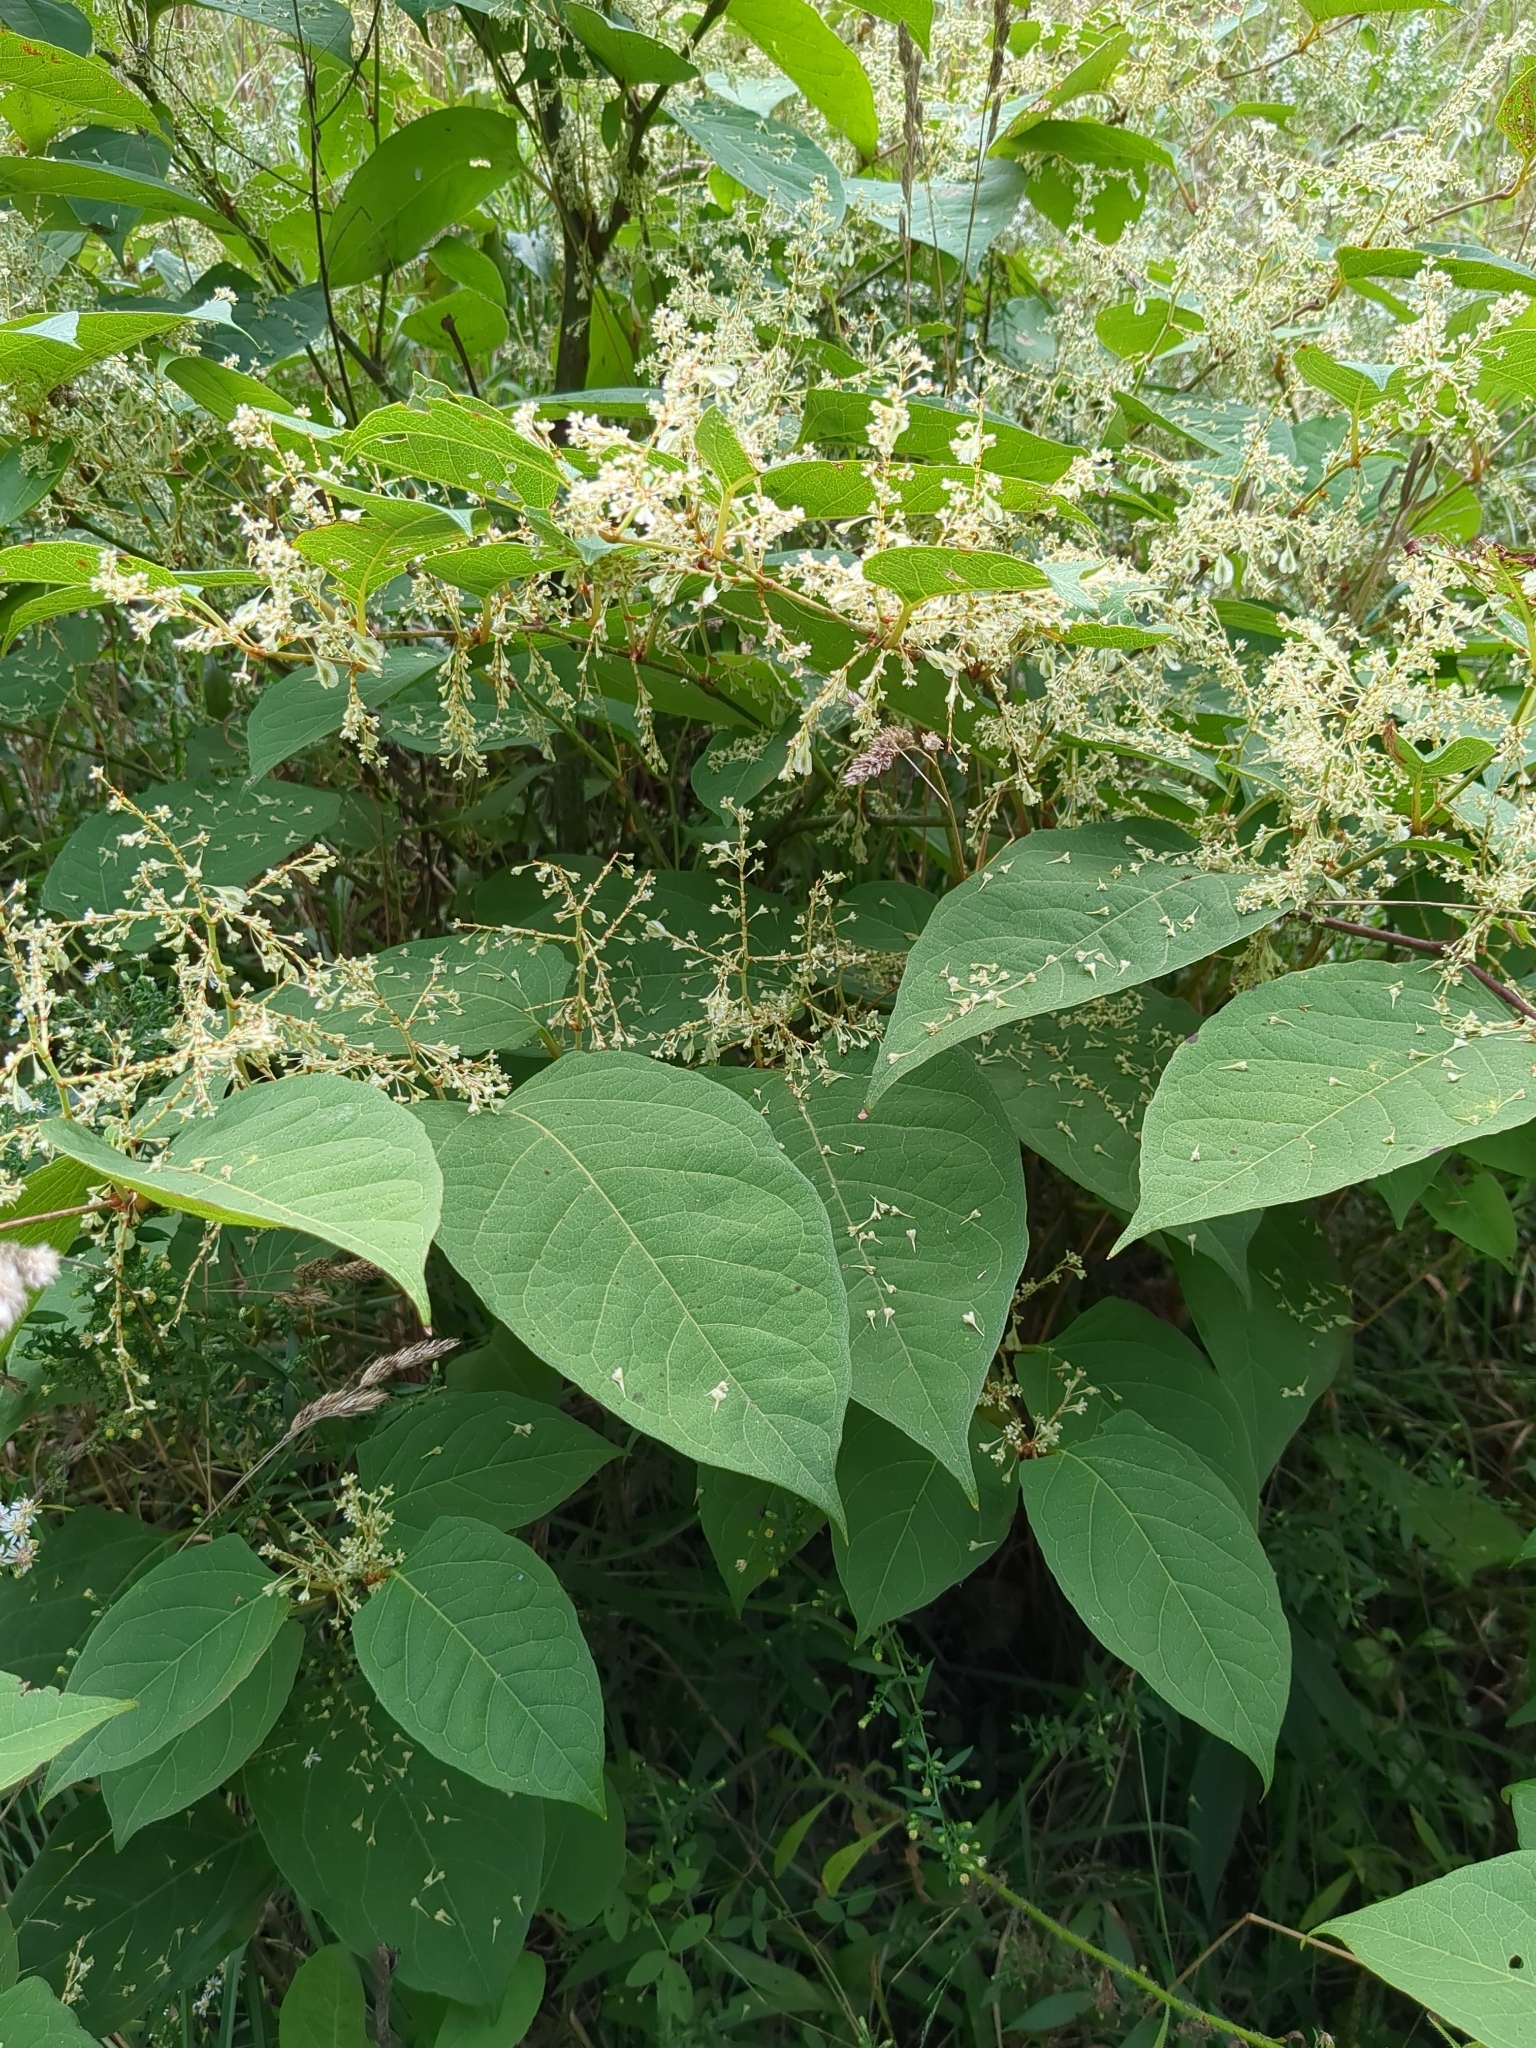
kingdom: Plantae
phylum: Tracheophyta
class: Magnoliopsida
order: Caryophyllales
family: Polygonaceae
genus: Reynoutria
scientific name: Reynoutria japonica
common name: Japanese knotweed
